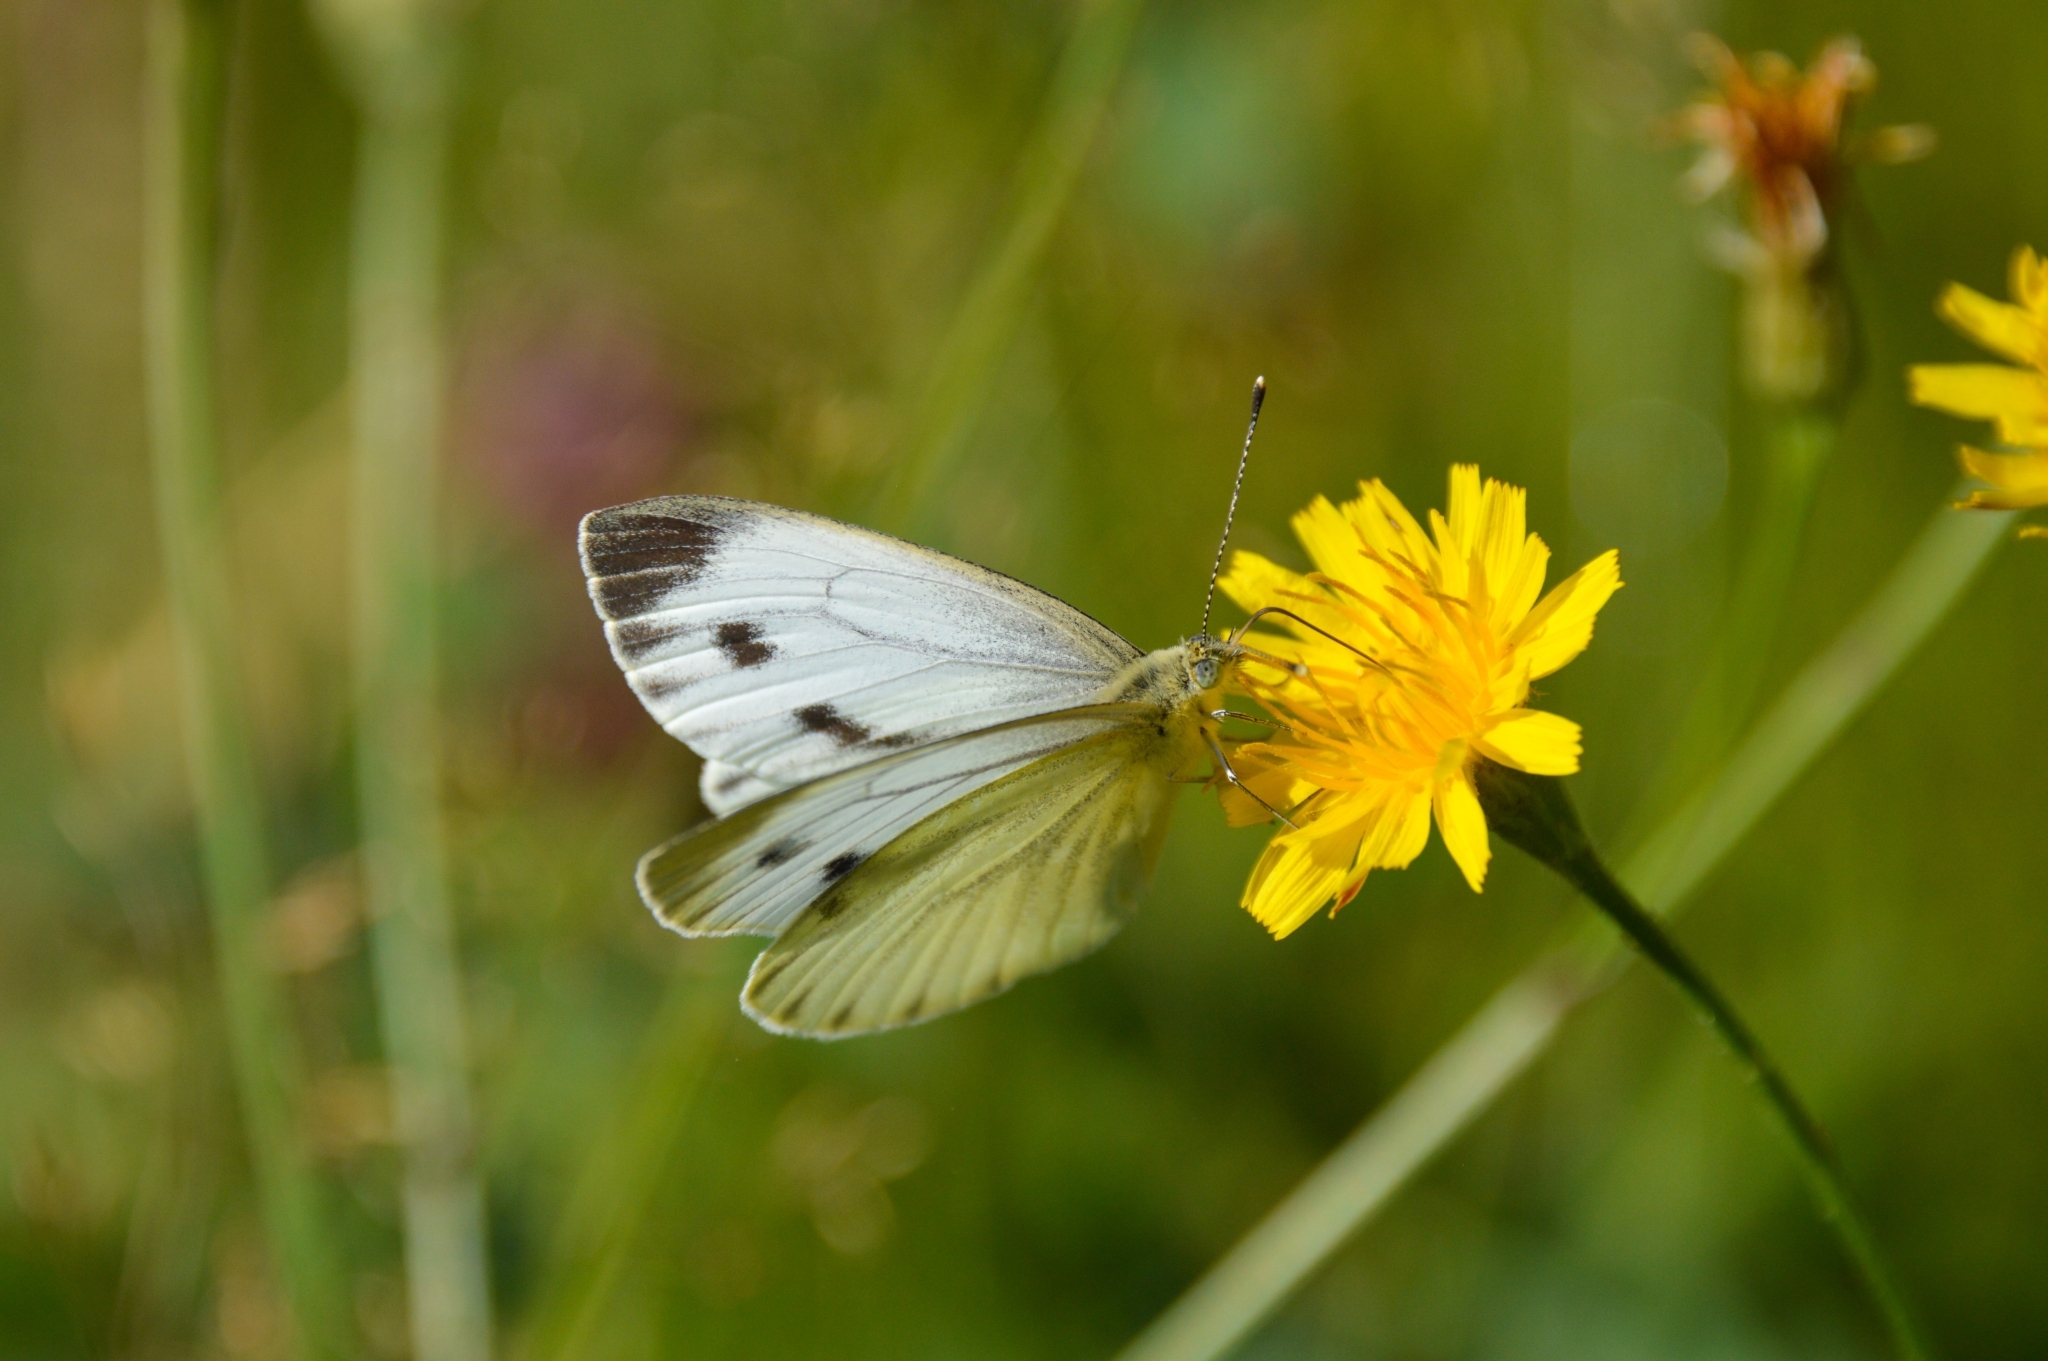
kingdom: Animalia
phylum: Arthropoda
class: Insecta
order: Lepidoptera
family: Pieridae
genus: Pieris
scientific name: Pieris napi
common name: Green-veined white
